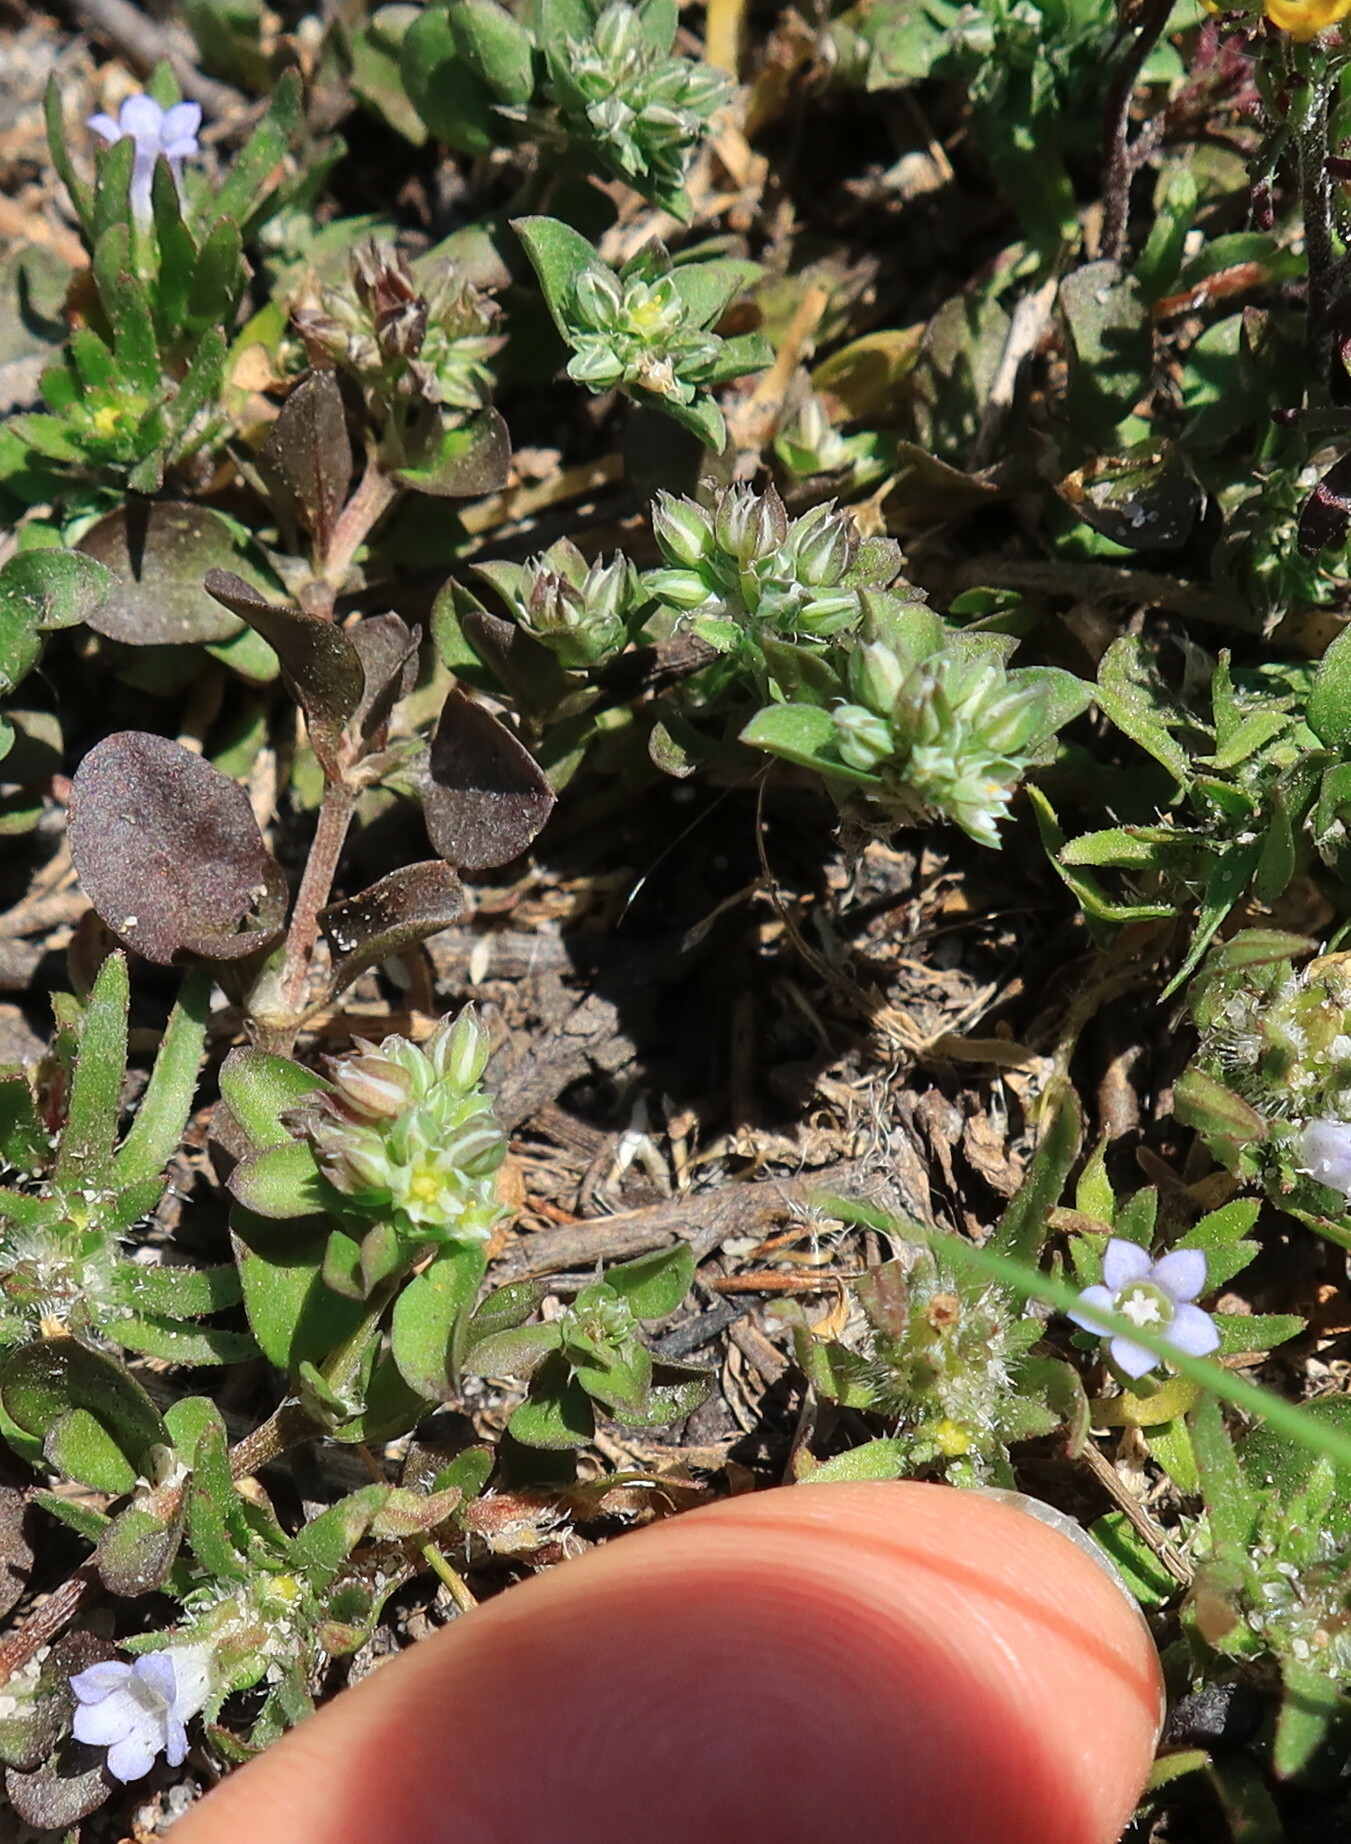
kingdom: Plantae
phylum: Tracheophyta
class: Magnoliopsida
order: Asterales
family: Campanulaceae
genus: Microcodon
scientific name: Microcodon glomeratus
